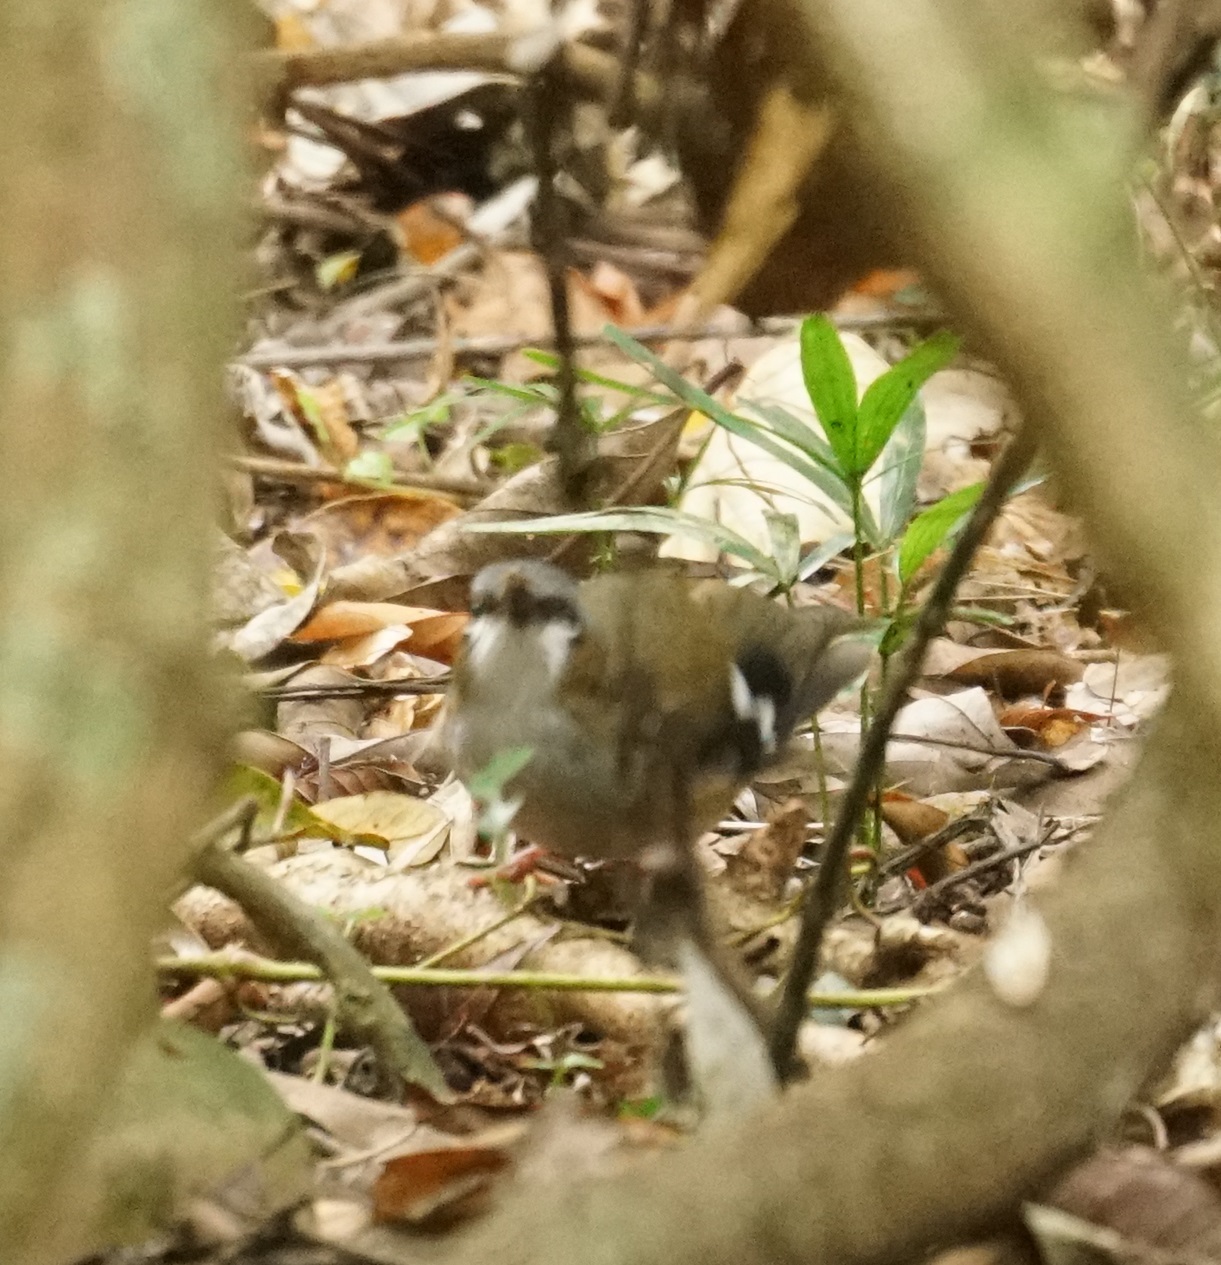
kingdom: Animalia
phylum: Chordata
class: Aves
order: Passeriformes
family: Petroicidae
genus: Heteromyias
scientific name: Heteromyias cinereifrons
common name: Grey-headed robin
